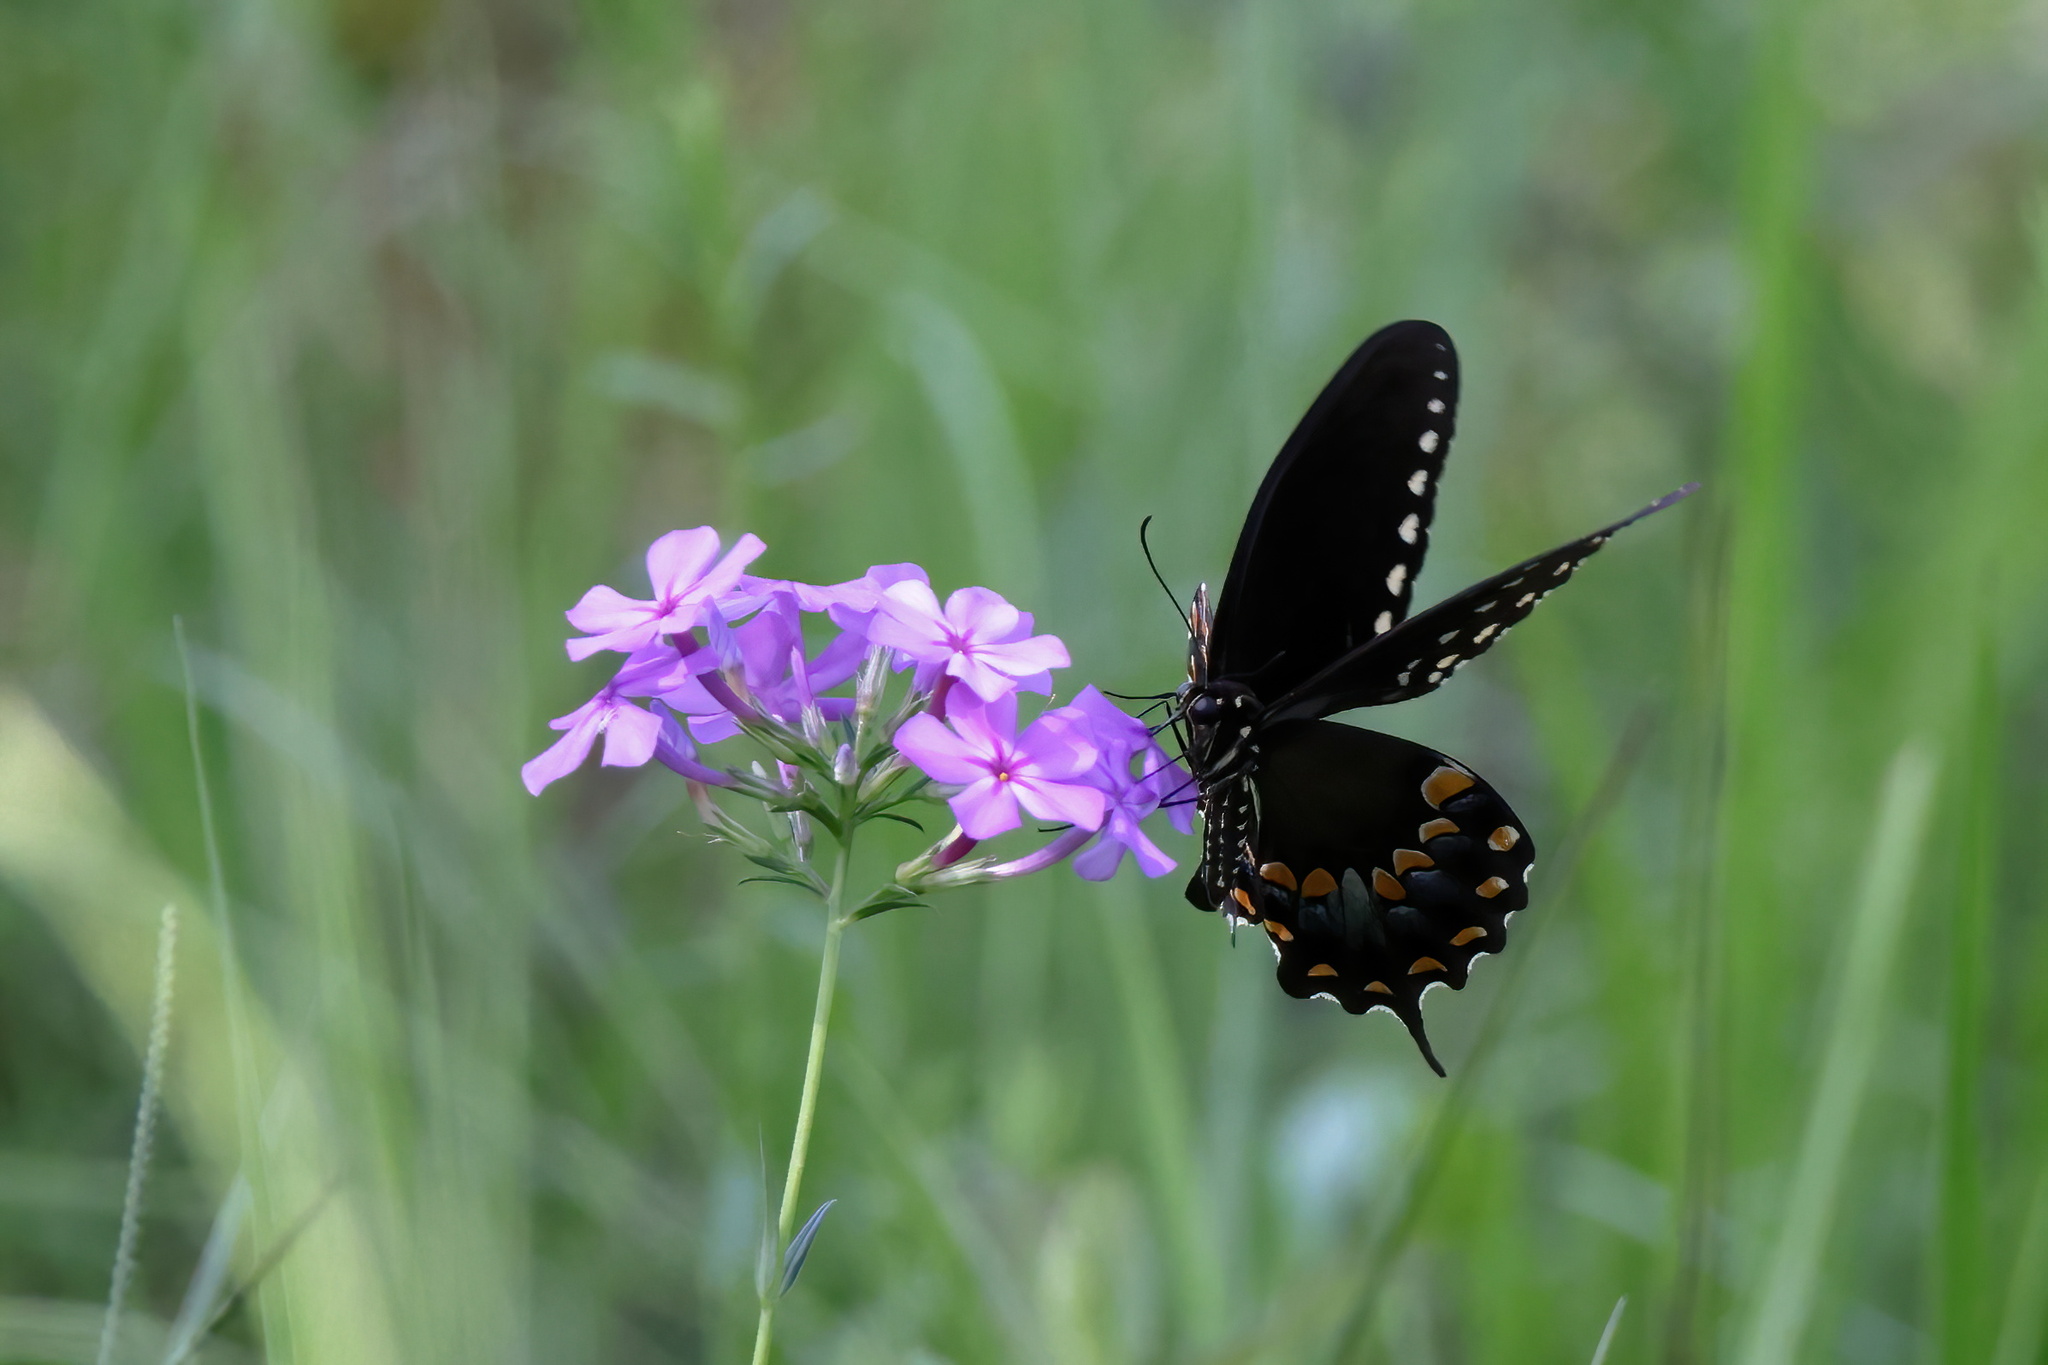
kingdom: Animalia
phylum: Arthropoda
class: Insecta
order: Lepidoptera
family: Papilionidae
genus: Papilio
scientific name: Papilio troilus
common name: Spicebush swallowtail
